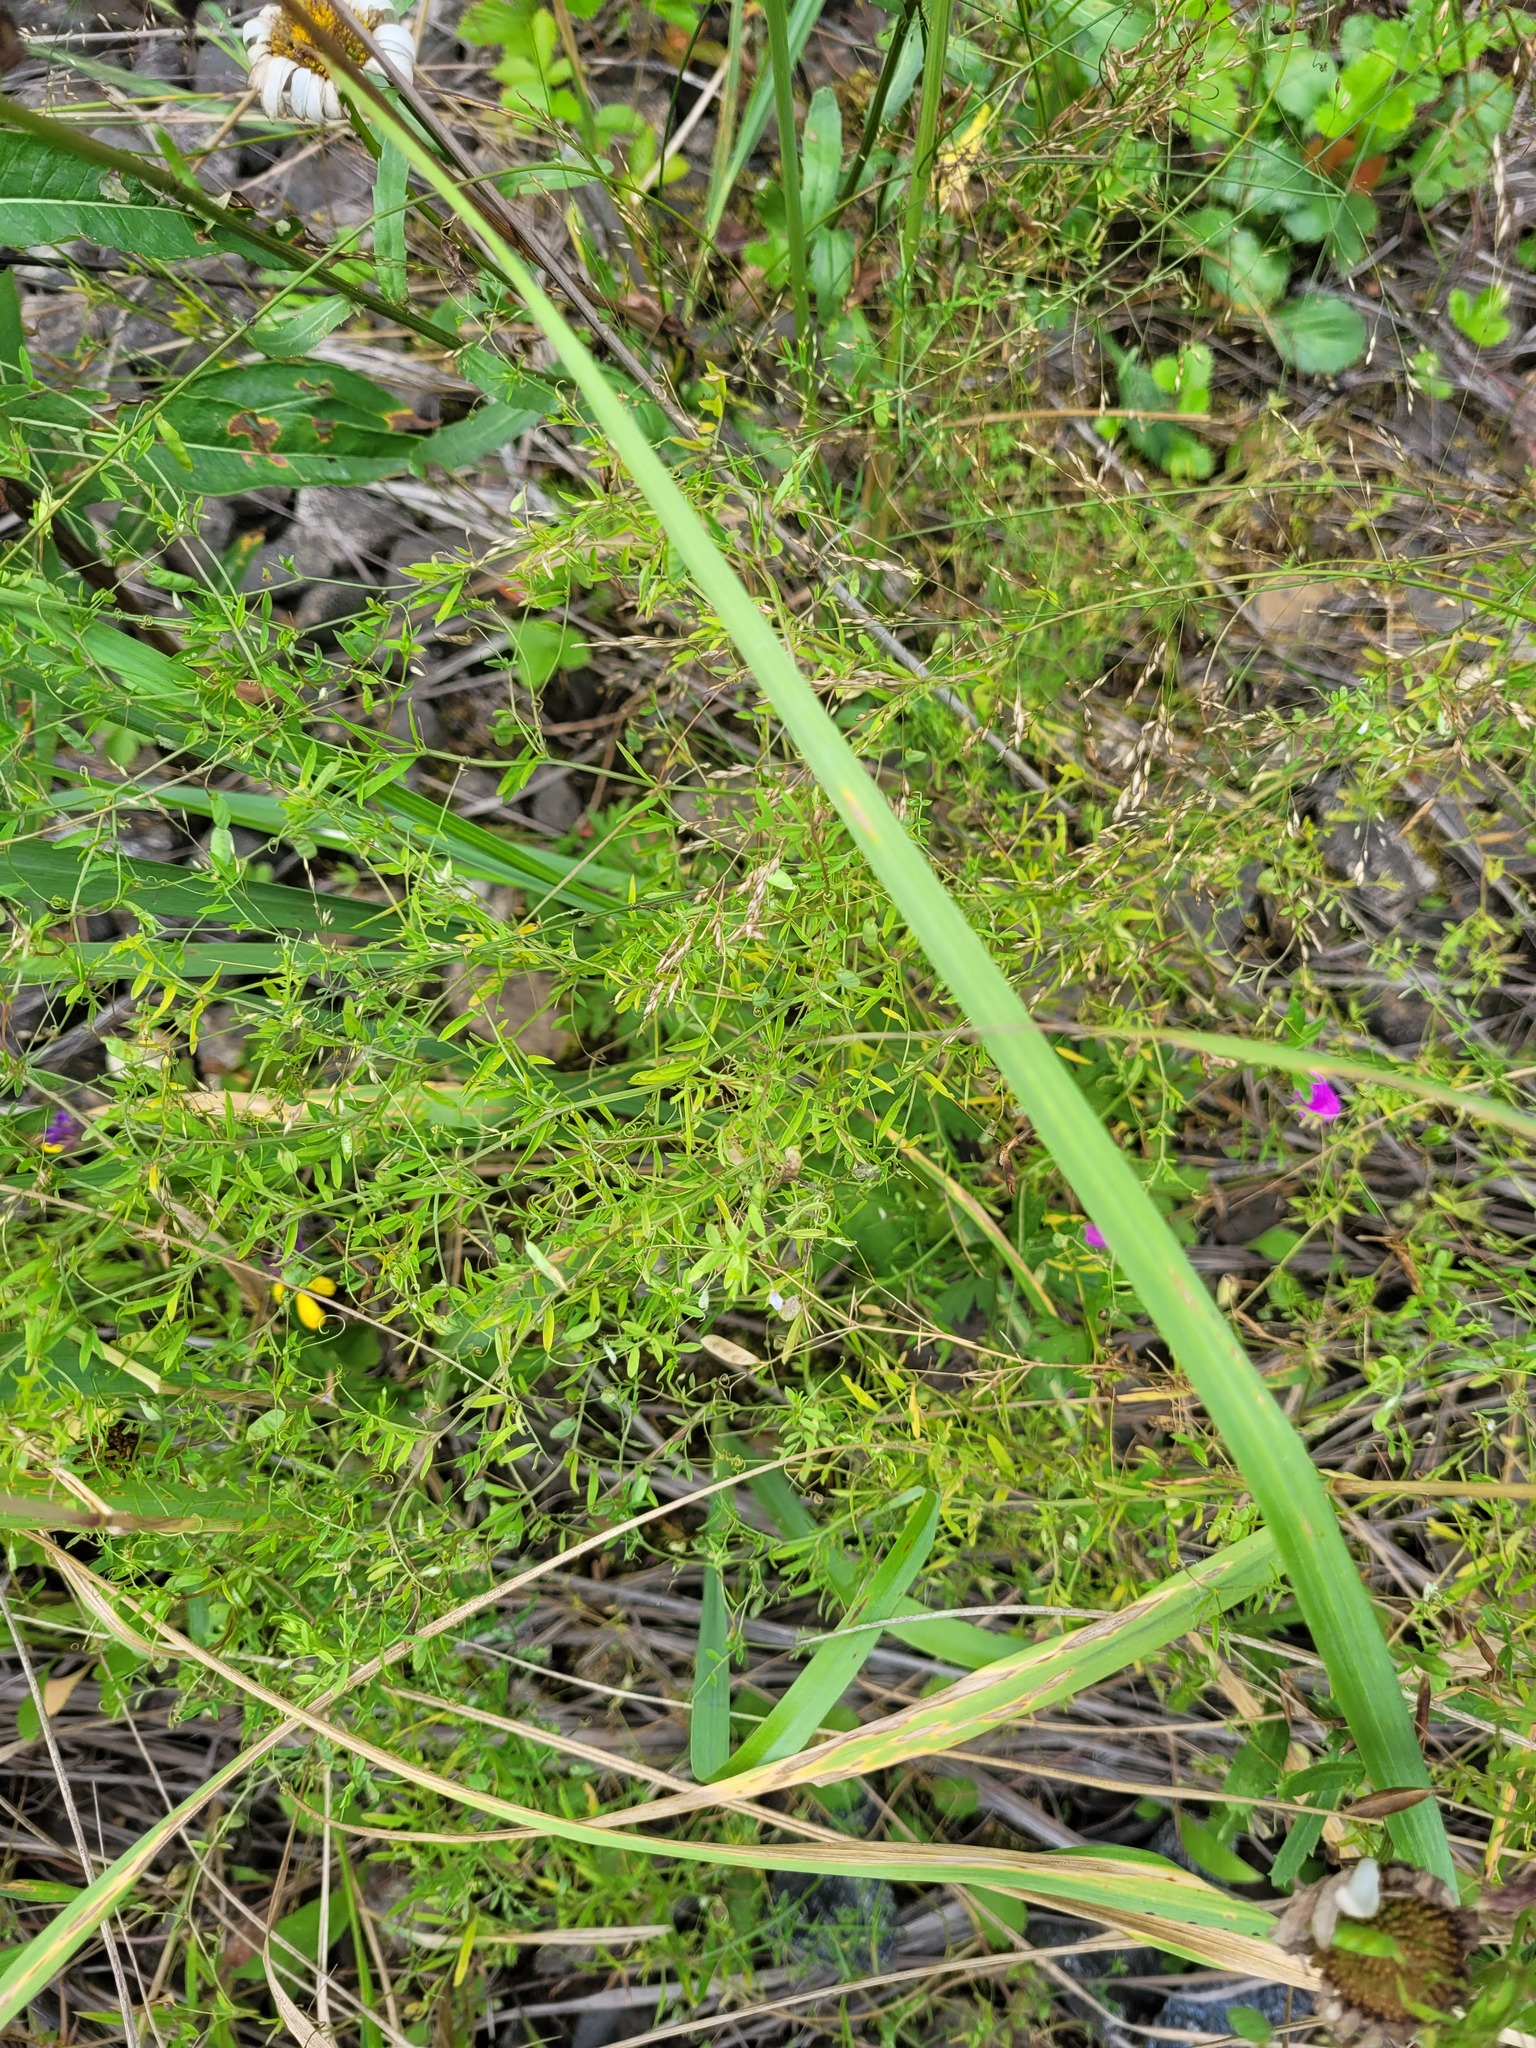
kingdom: Plantae
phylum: Tracheophyta
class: Magnoliopsida
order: Fabales
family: Fabaceae
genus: Vicia
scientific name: Vicia tetrasperma
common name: Smooth tare
